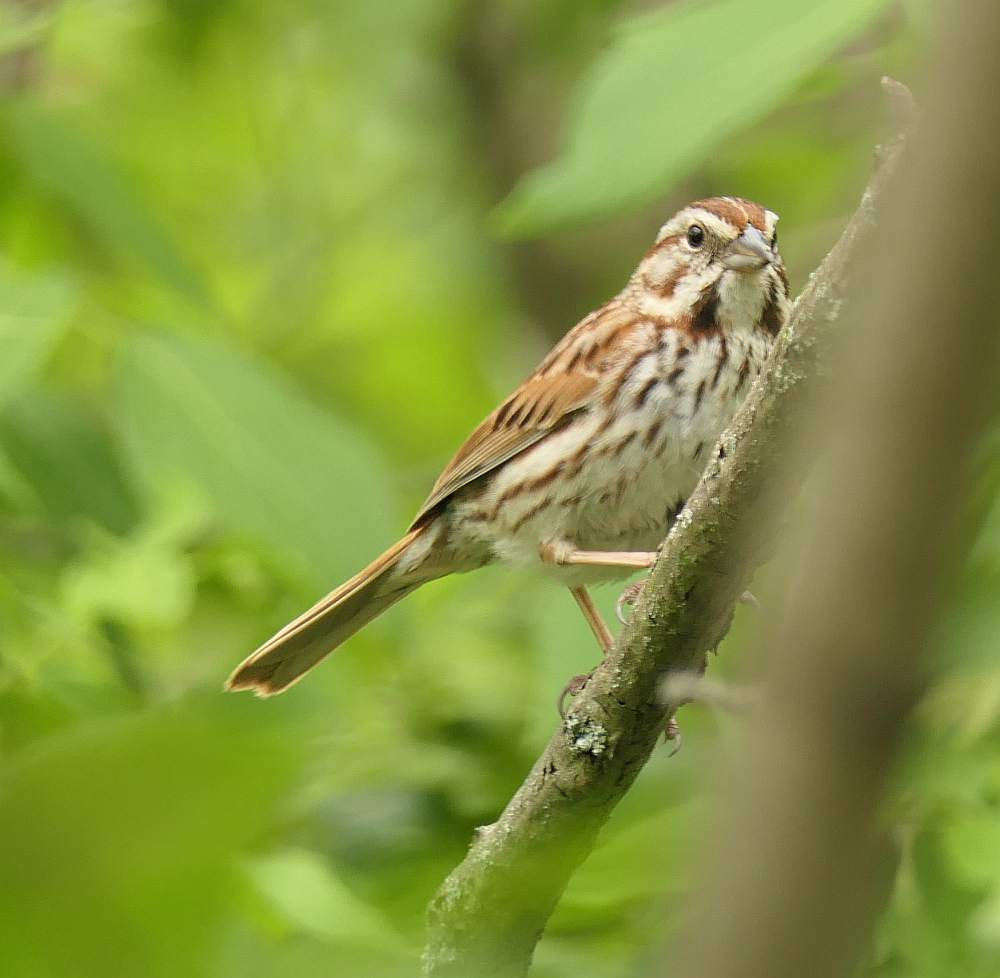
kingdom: Animalia
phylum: Chordata
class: Aves
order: Passeriformes
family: Passerellidae
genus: Melospiza
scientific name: Melospiza melodia
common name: Song sparrow
